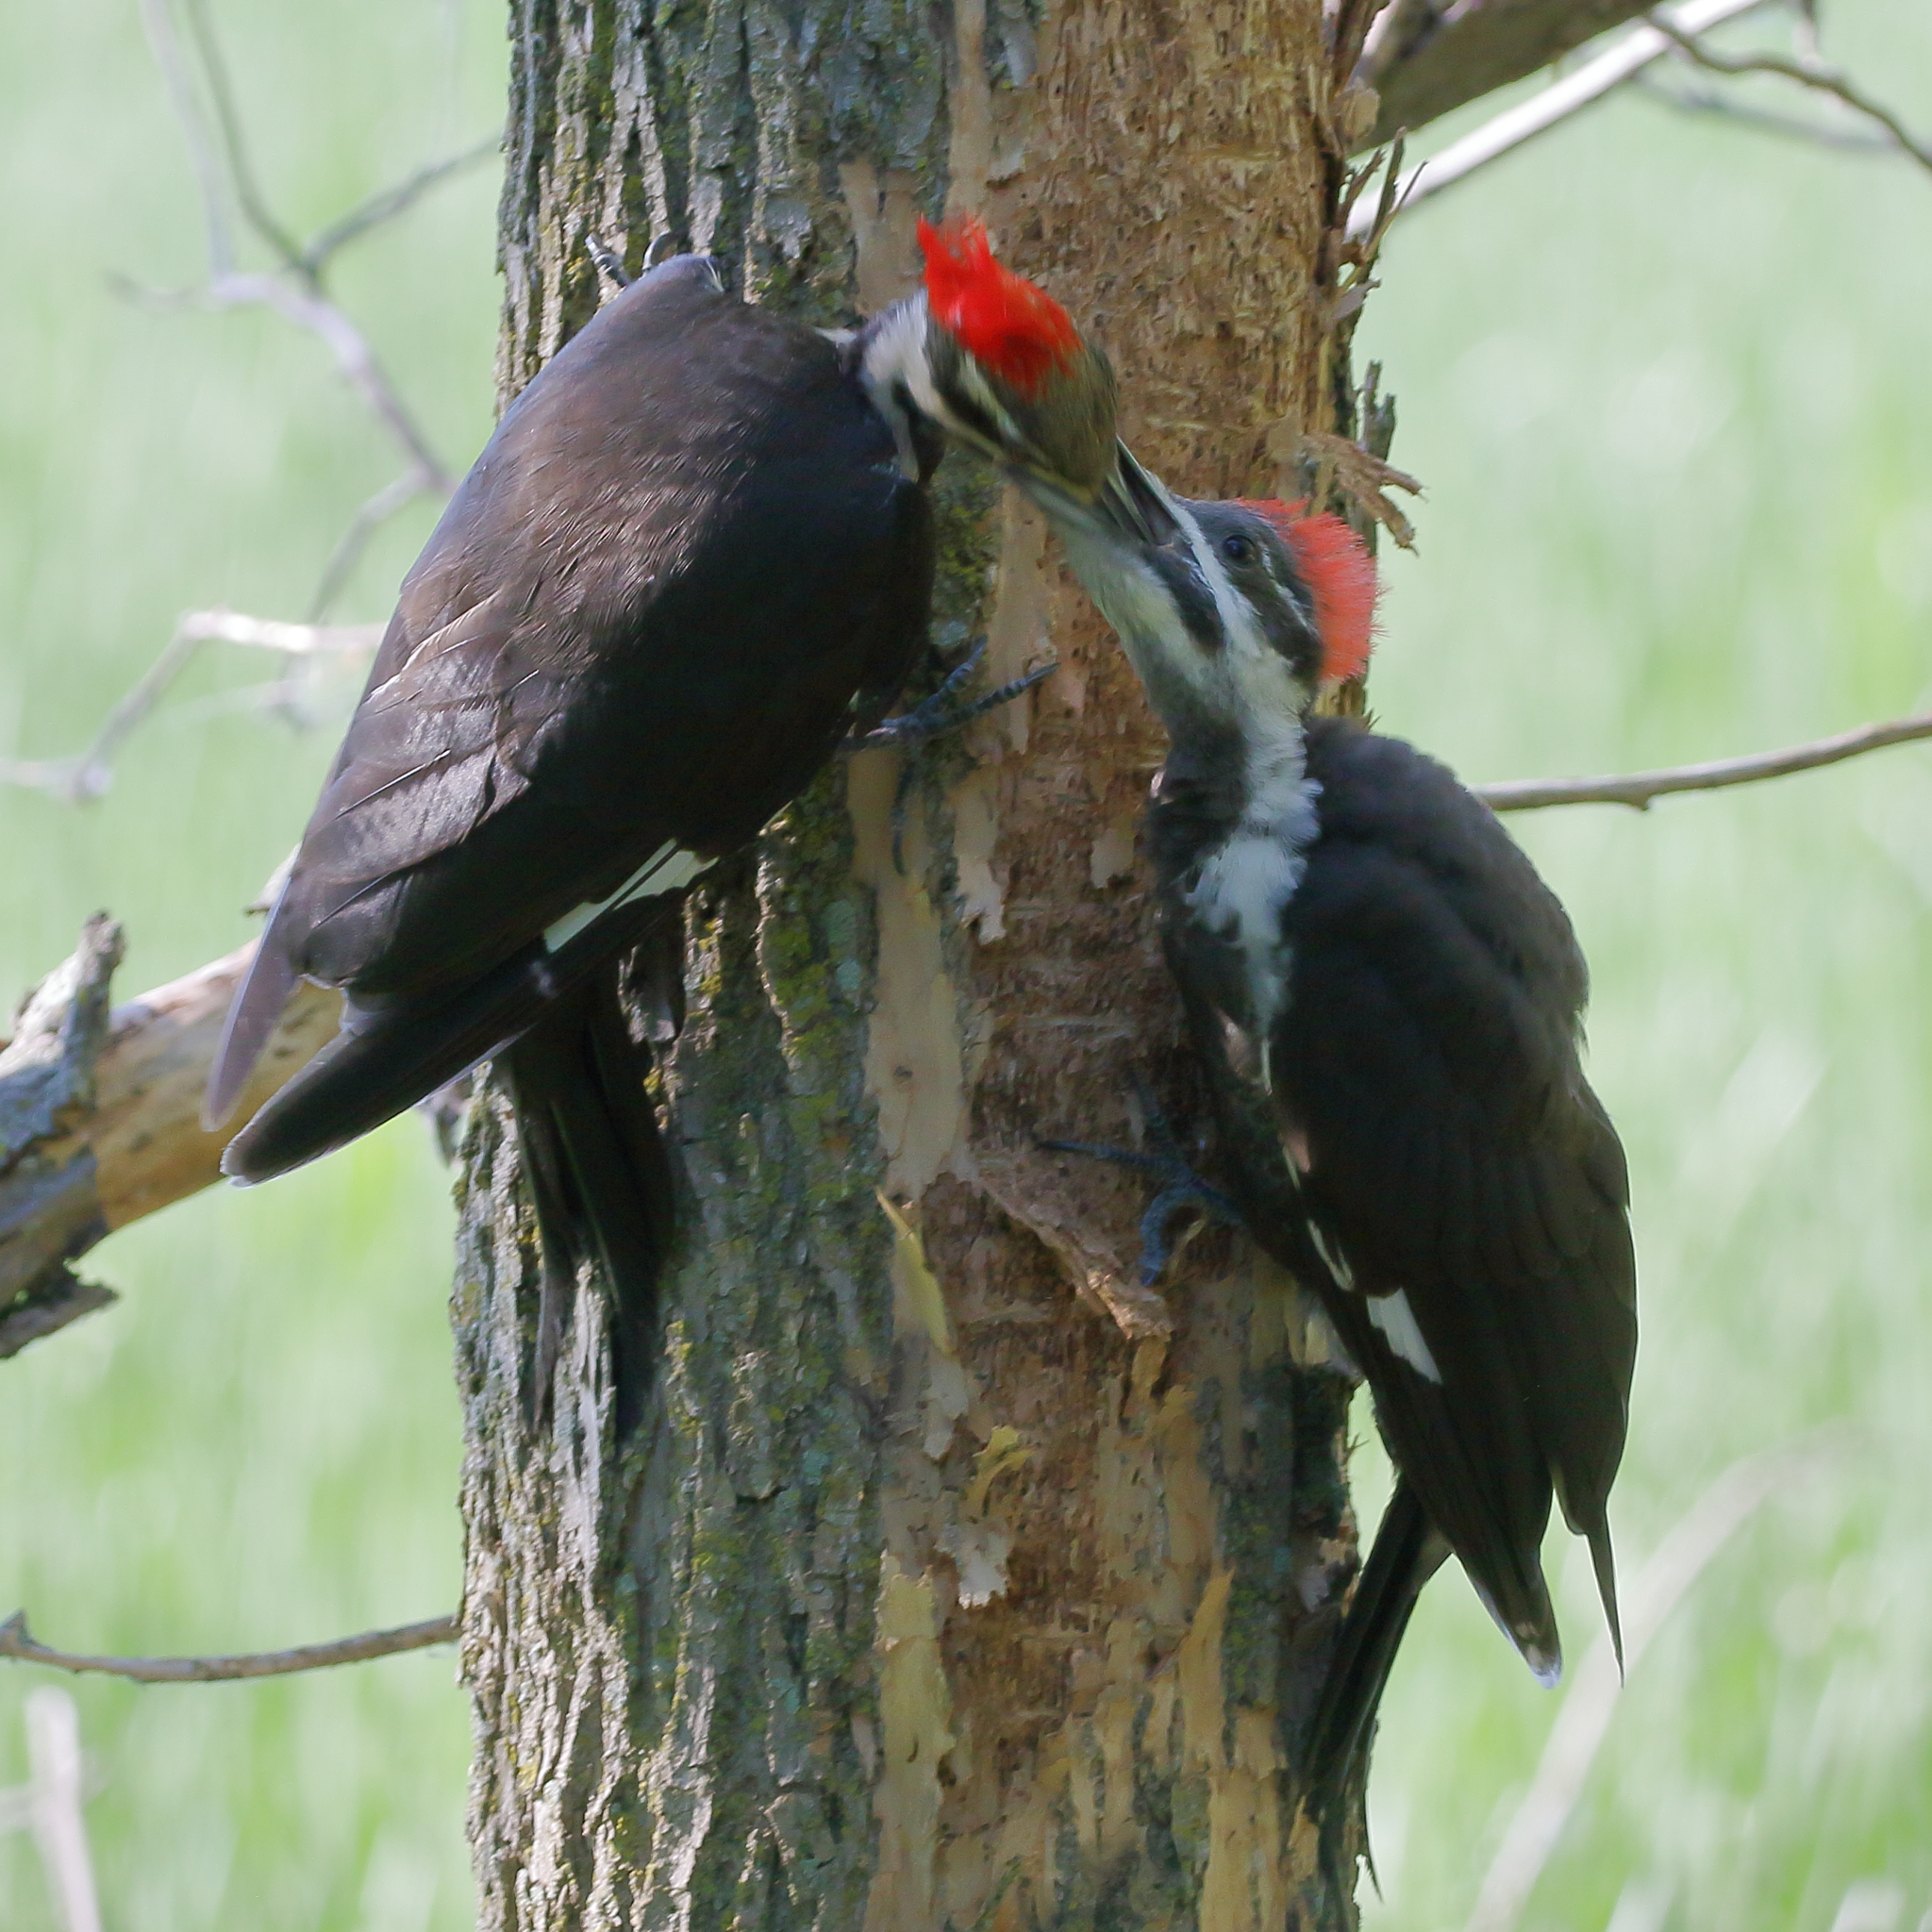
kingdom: Animalia
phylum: Chordata
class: Aves
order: Piciformes
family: Picidae
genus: Dryocopus
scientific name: Dryocopus pileatus
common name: Pileated woodpecker
